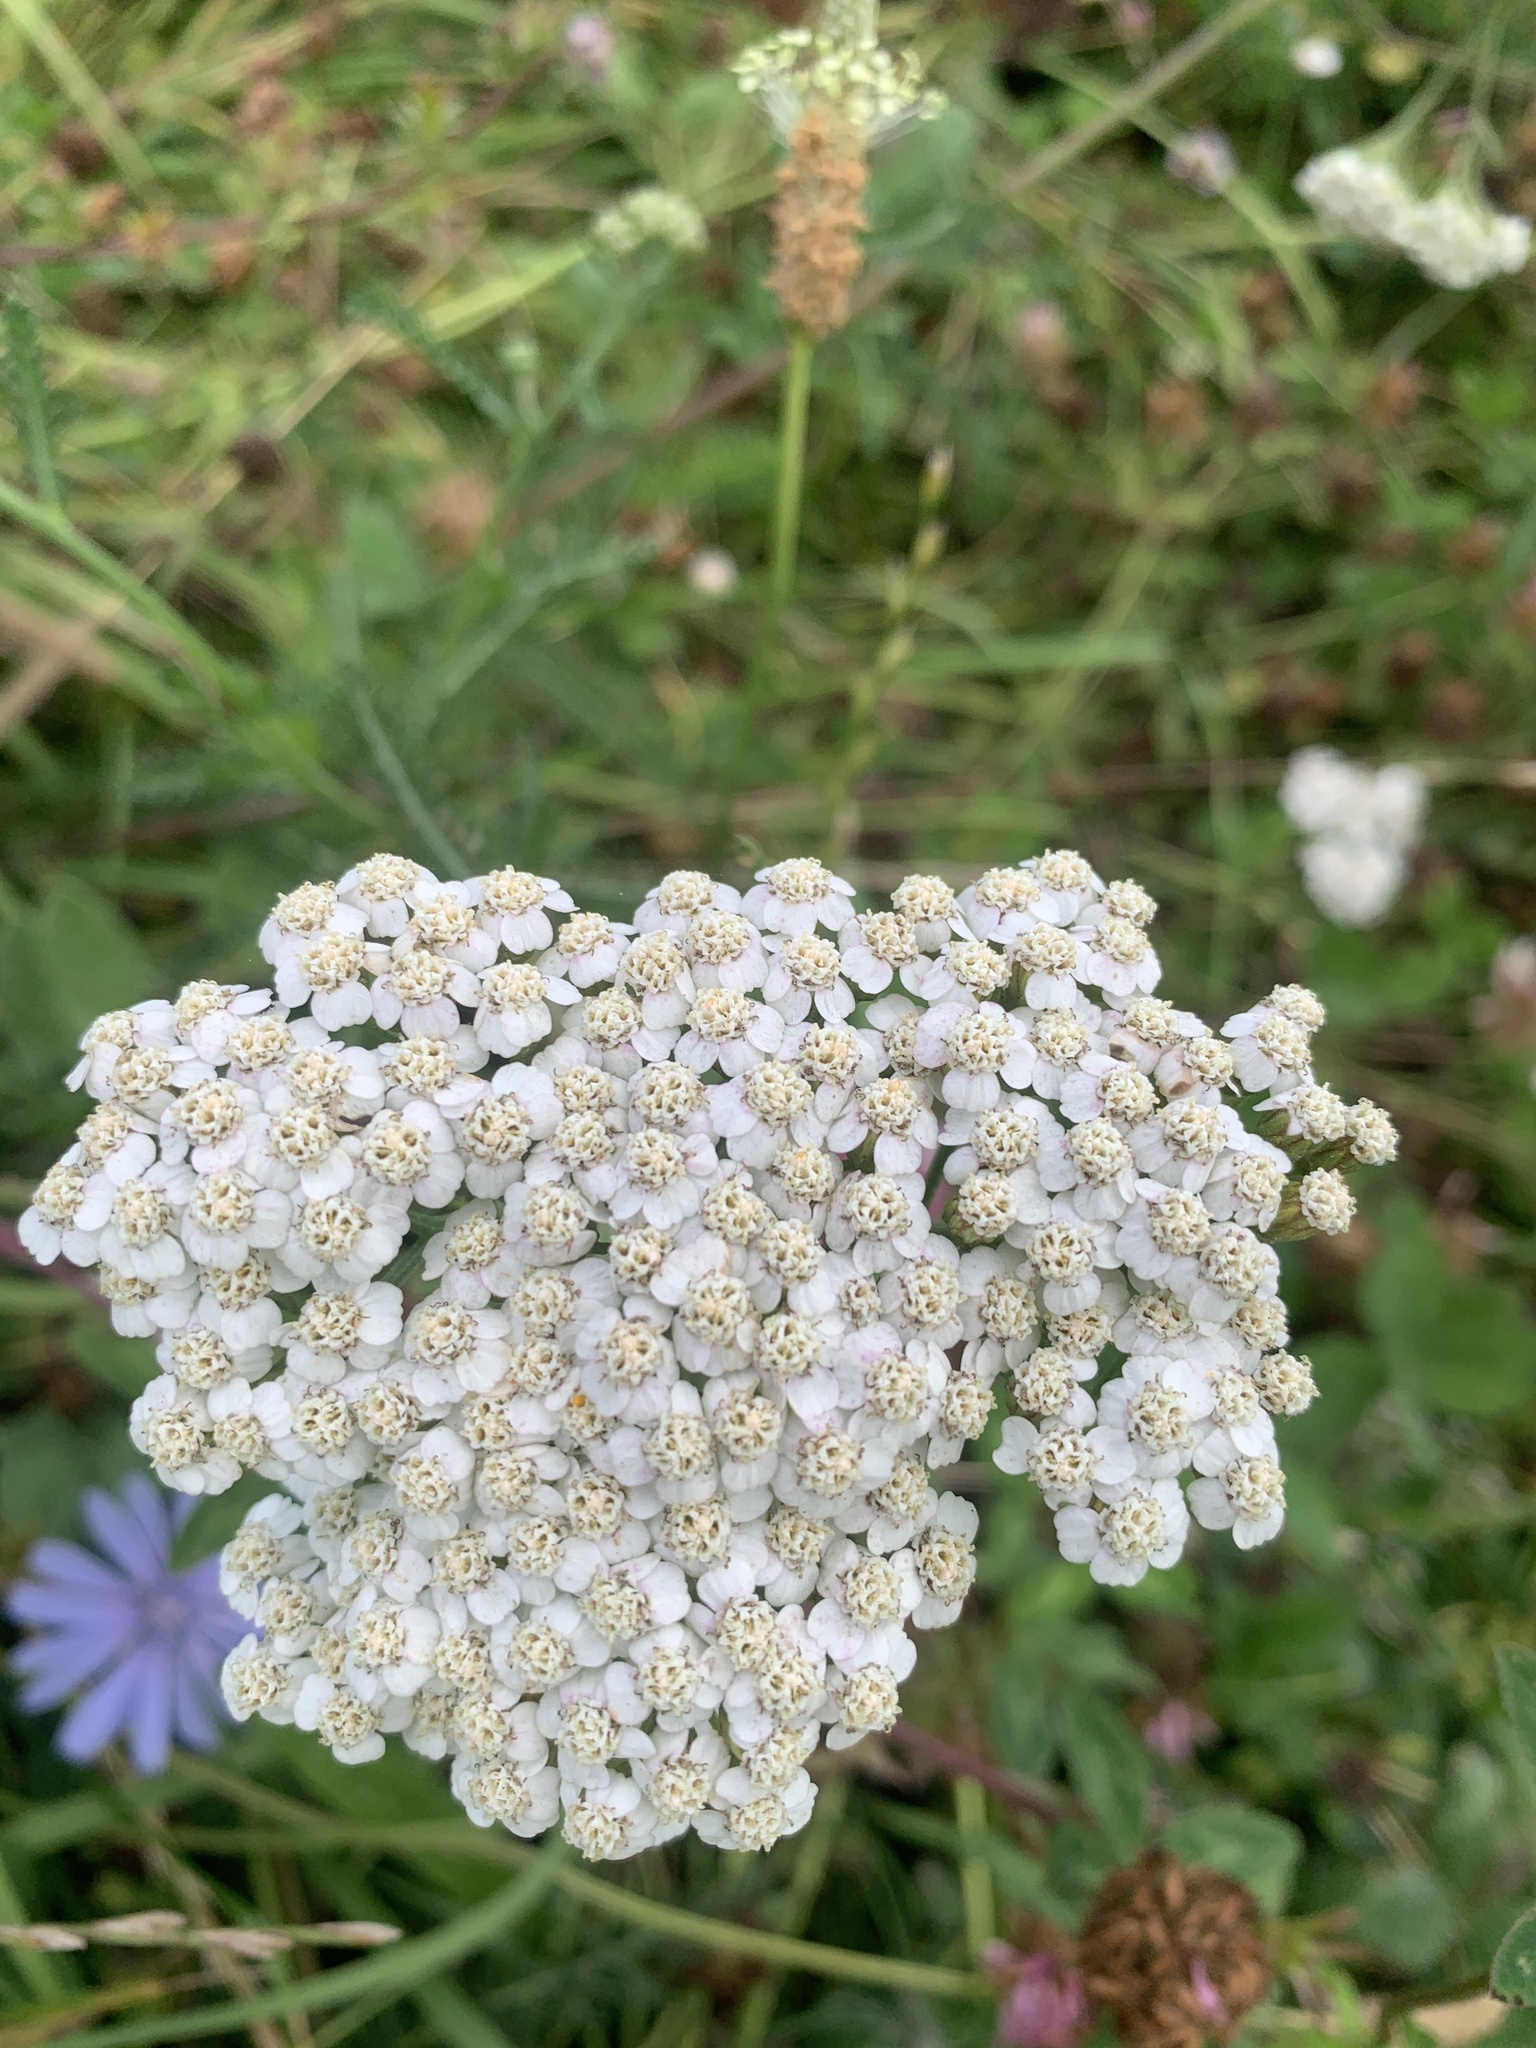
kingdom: Plantae
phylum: Tracheophyta
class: Magnoliopsida
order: Asterales
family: Asteraceae
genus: Achillea
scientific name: Achillea millefolium
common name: Yarrow
